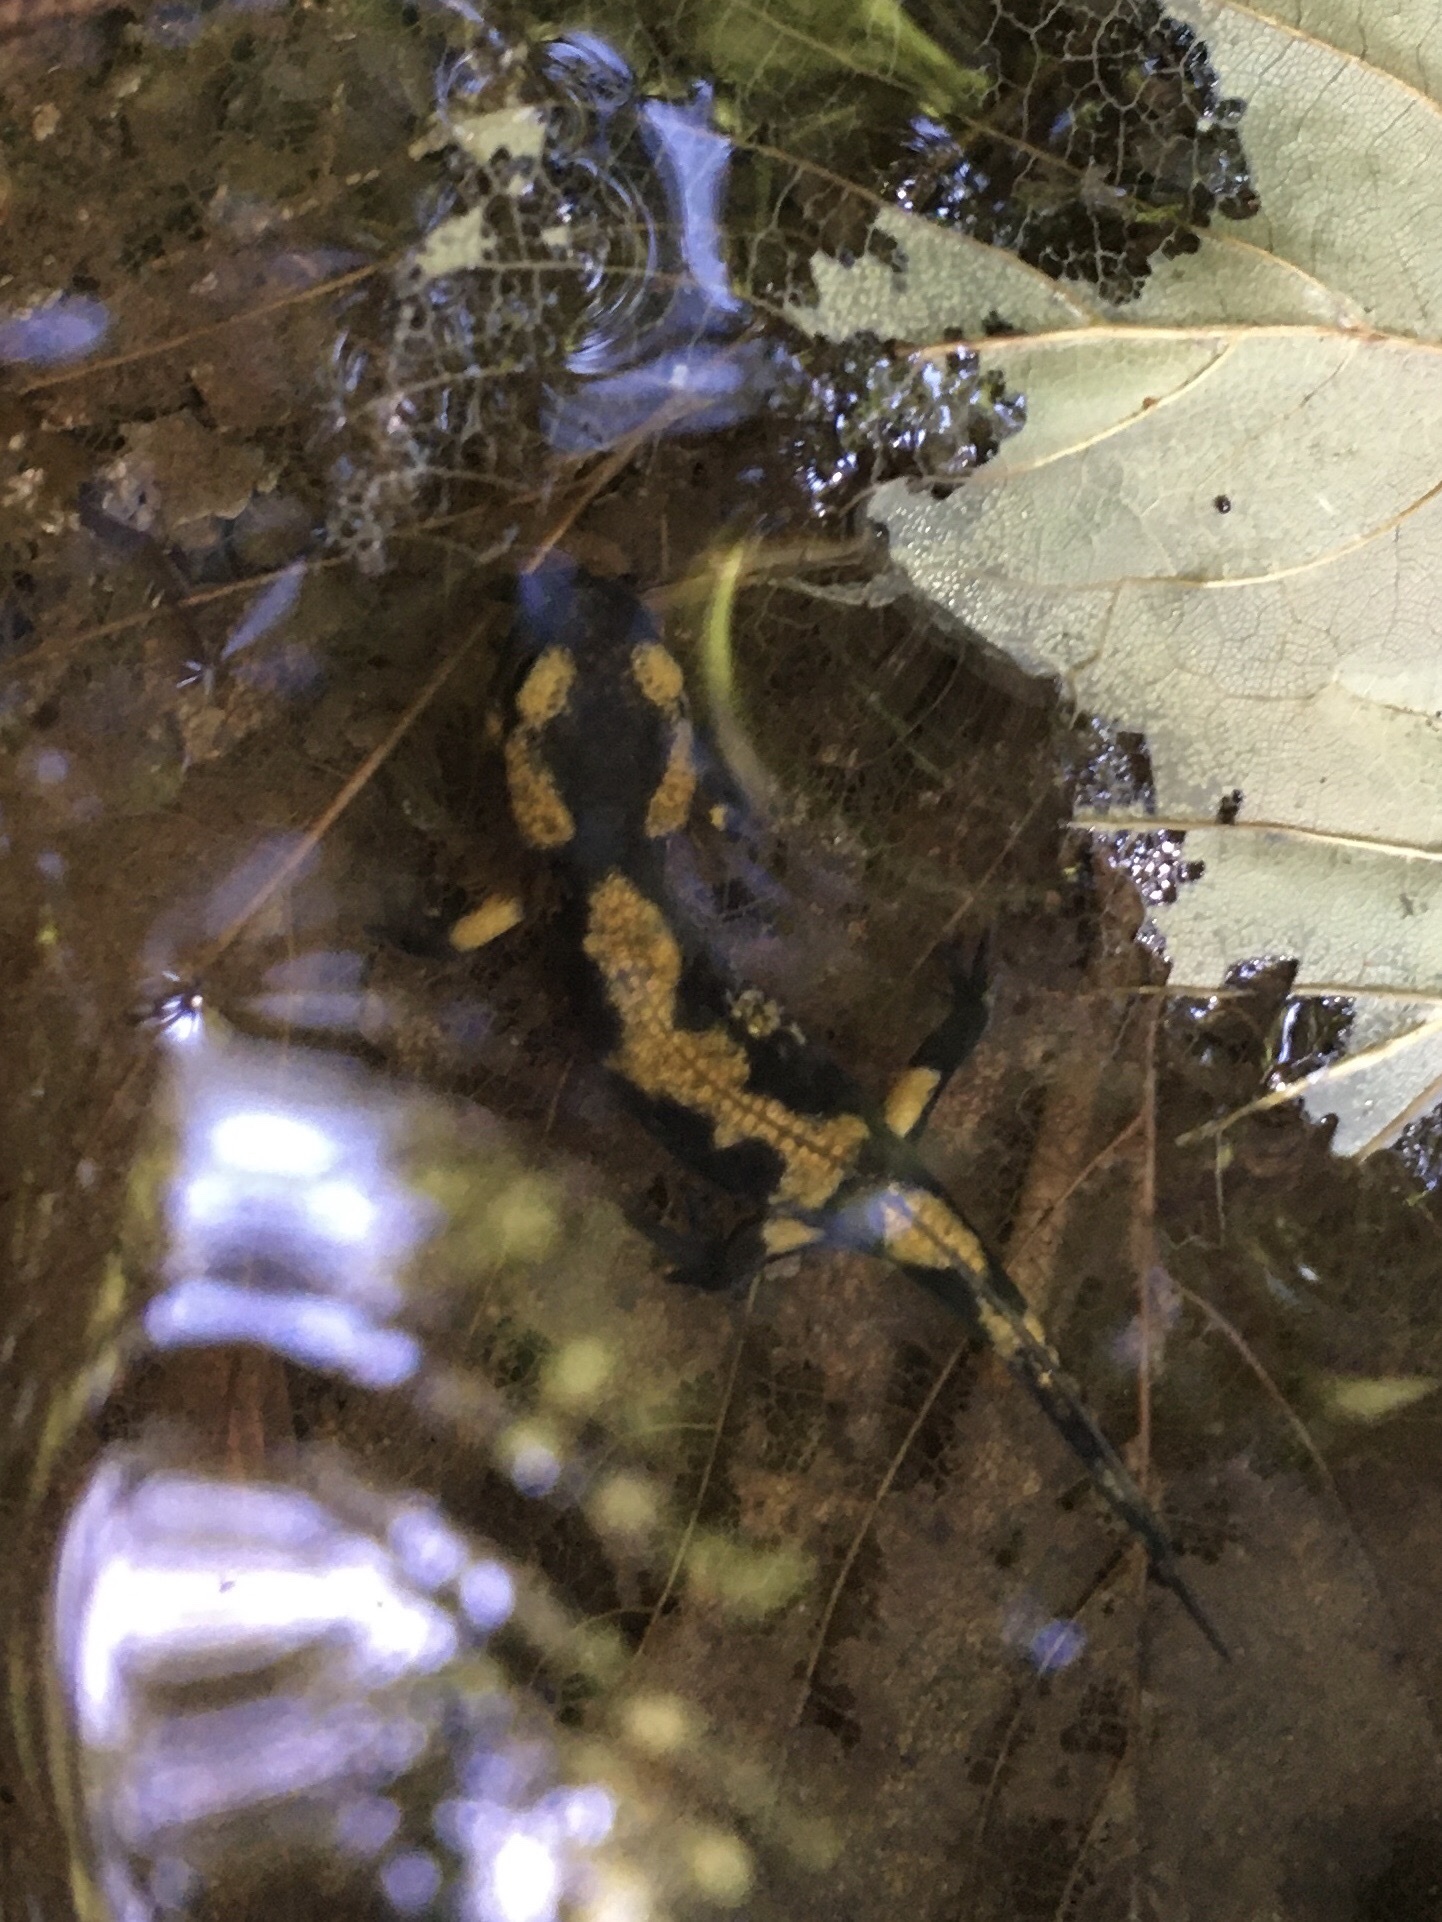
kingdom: Animalia
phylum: Chordata
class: Amphibia
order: Caudata
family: Salamandridae
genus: Salamandra
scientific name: Salamandra salamandra
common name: Fire salamander
